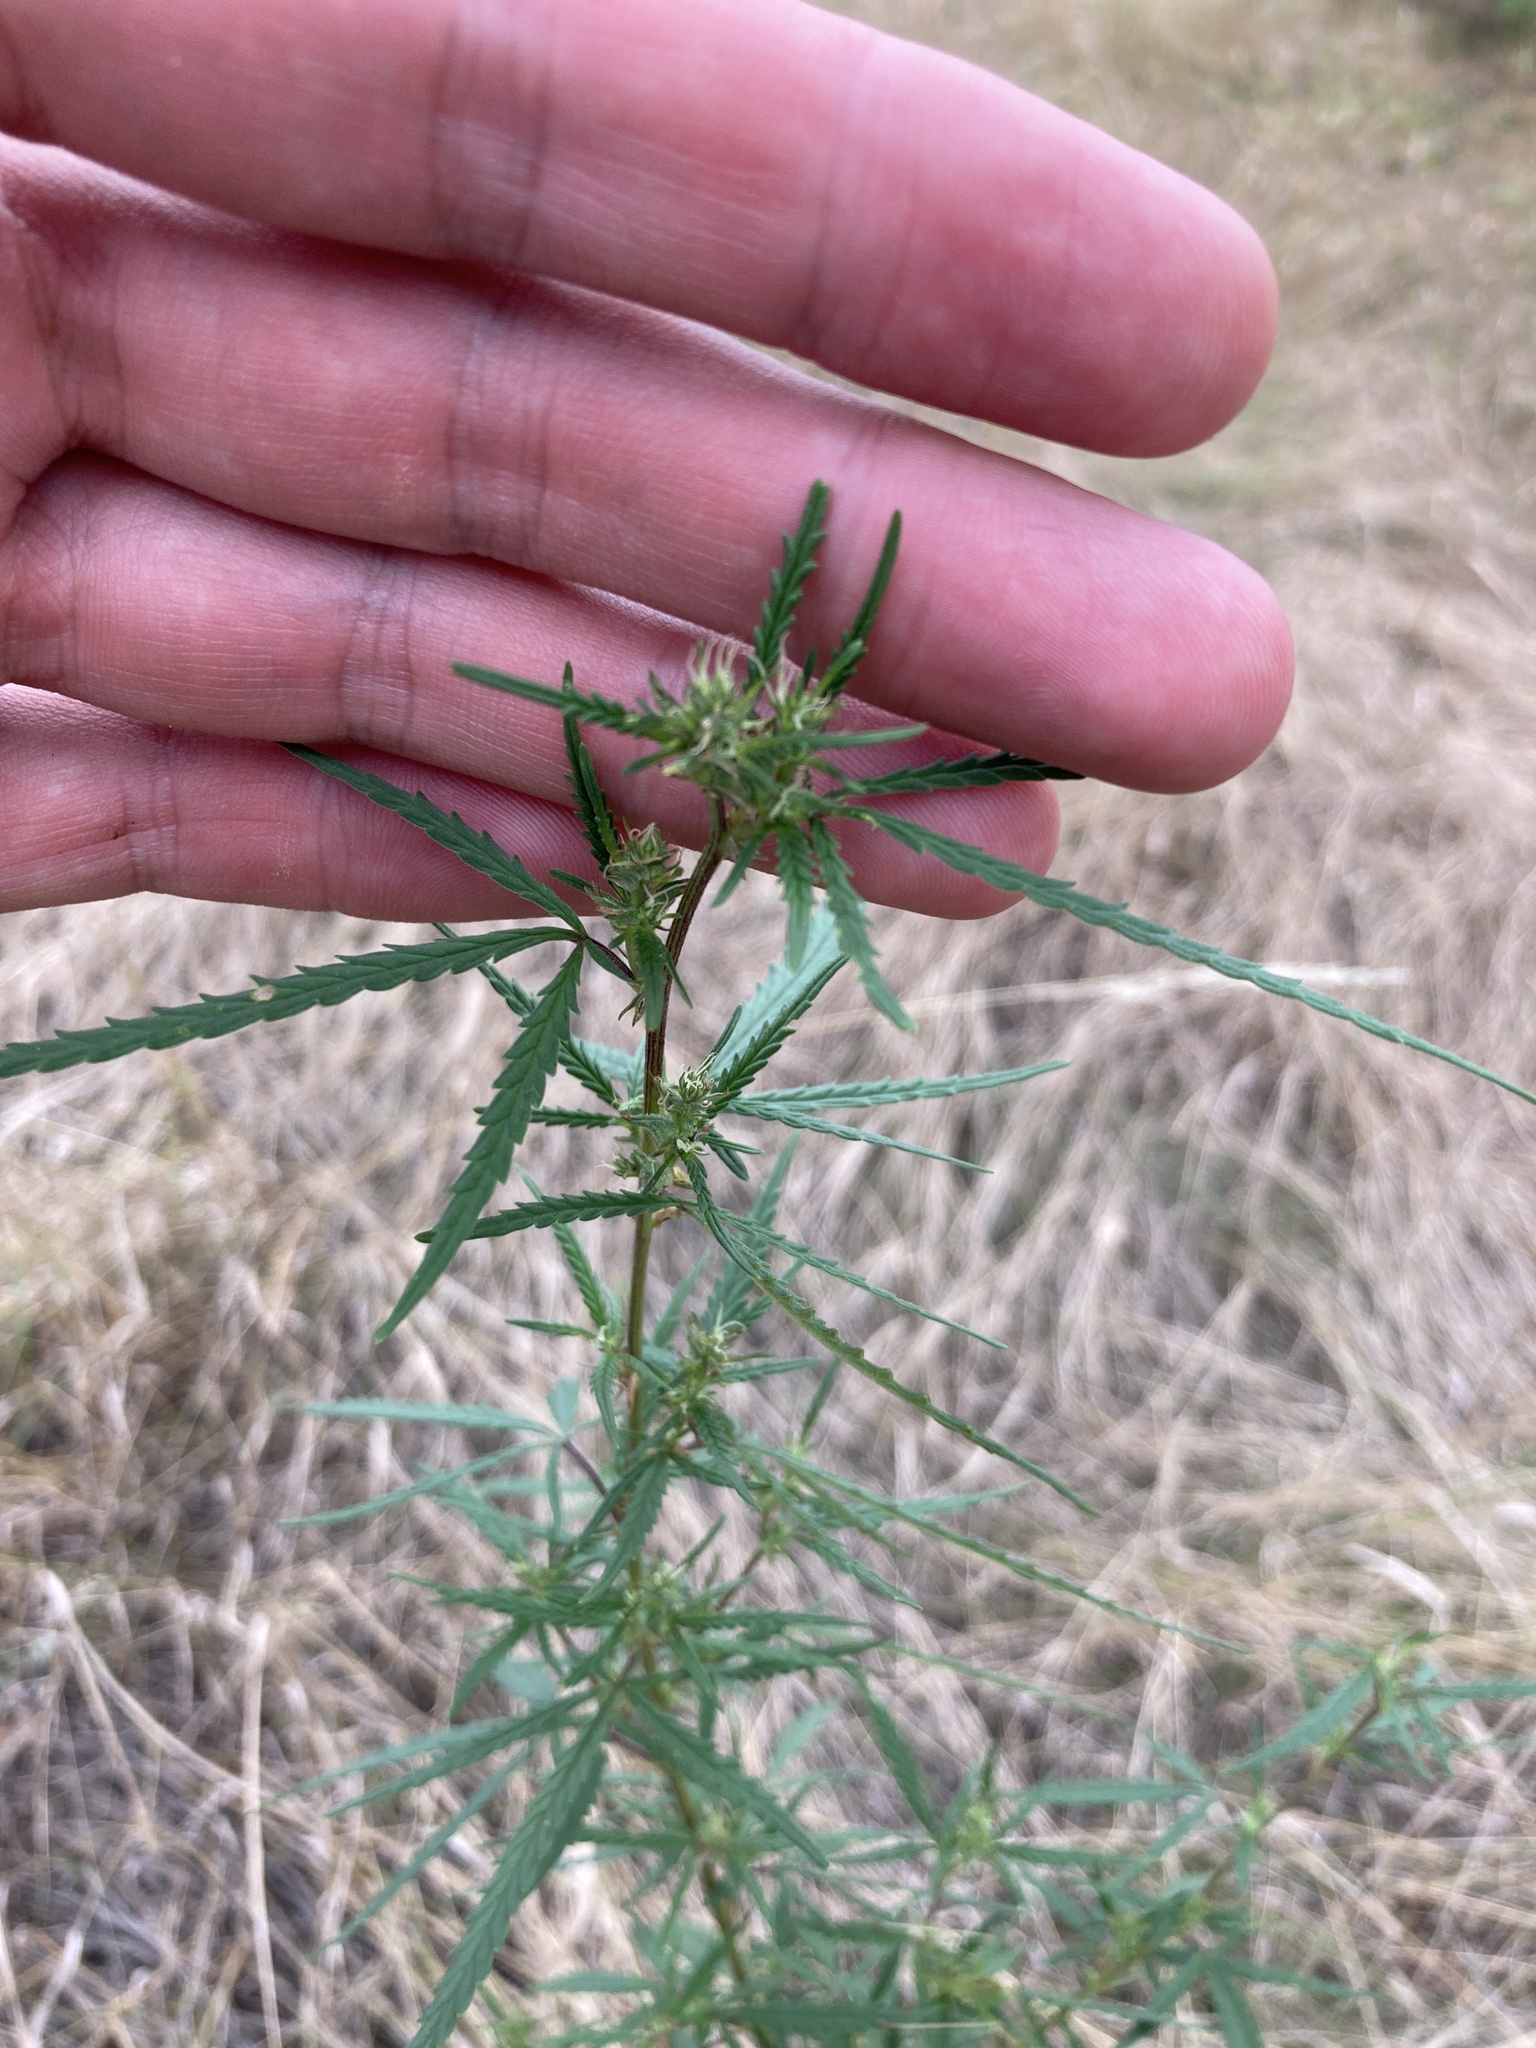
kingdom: Plantae
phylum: Tracheophyta
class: Magnoliopsida
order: Rosales
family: Cannabaceae
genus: Cannabis
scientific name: Cannabis sativa
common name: Hemp
